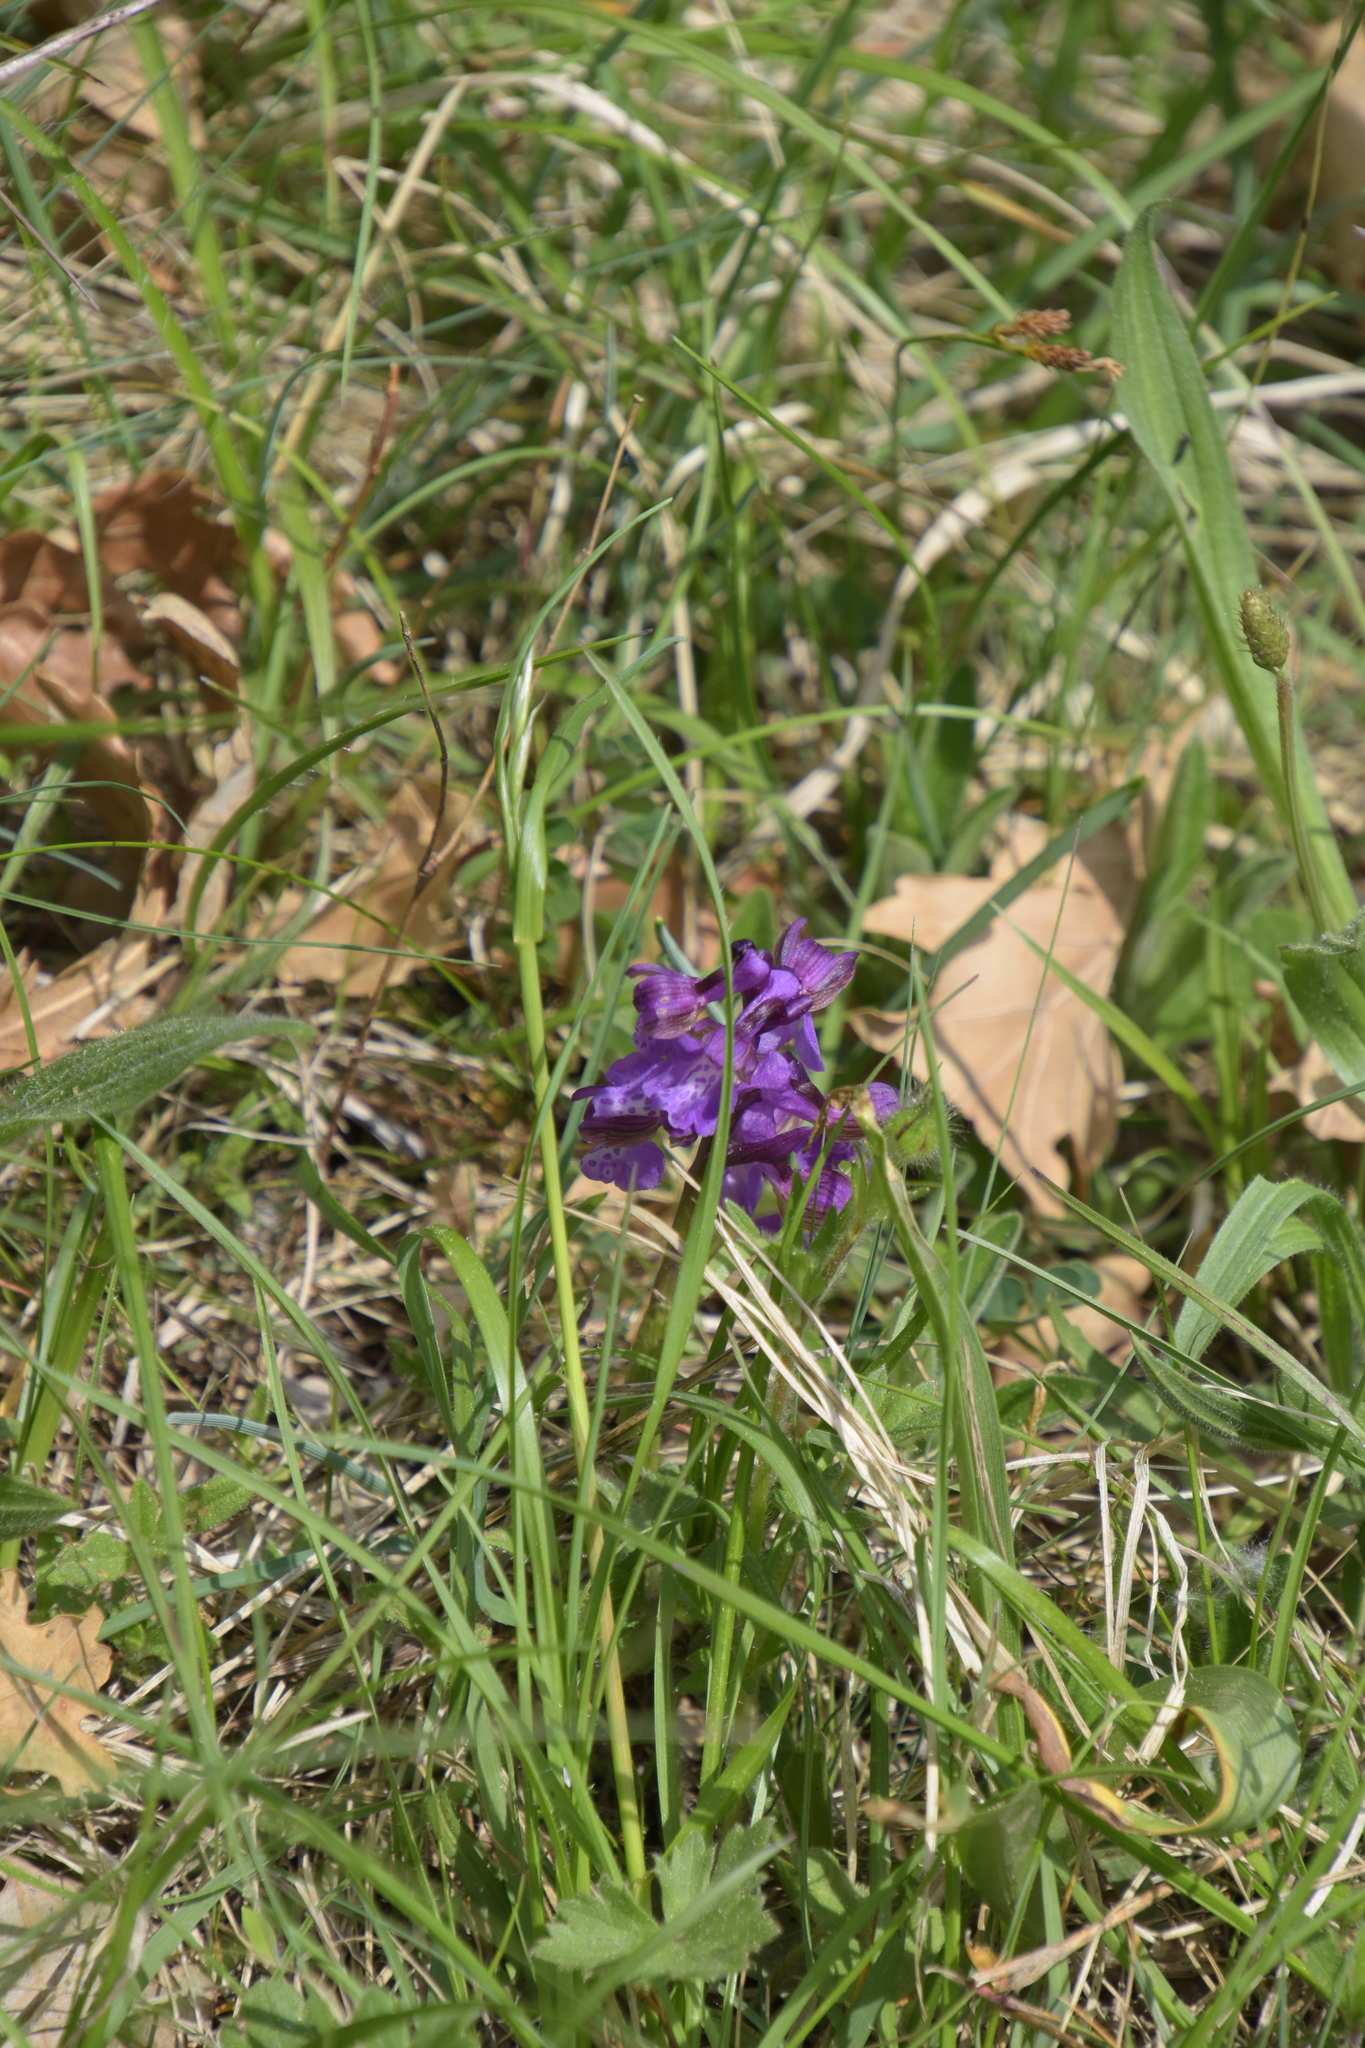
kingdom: Plantae
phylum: Tracheophyta
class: Liliopsida
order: Asparagales
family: Orchidaceae
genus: Anacamptis
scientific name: Anacamptis morio
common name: Green-winged orchid
